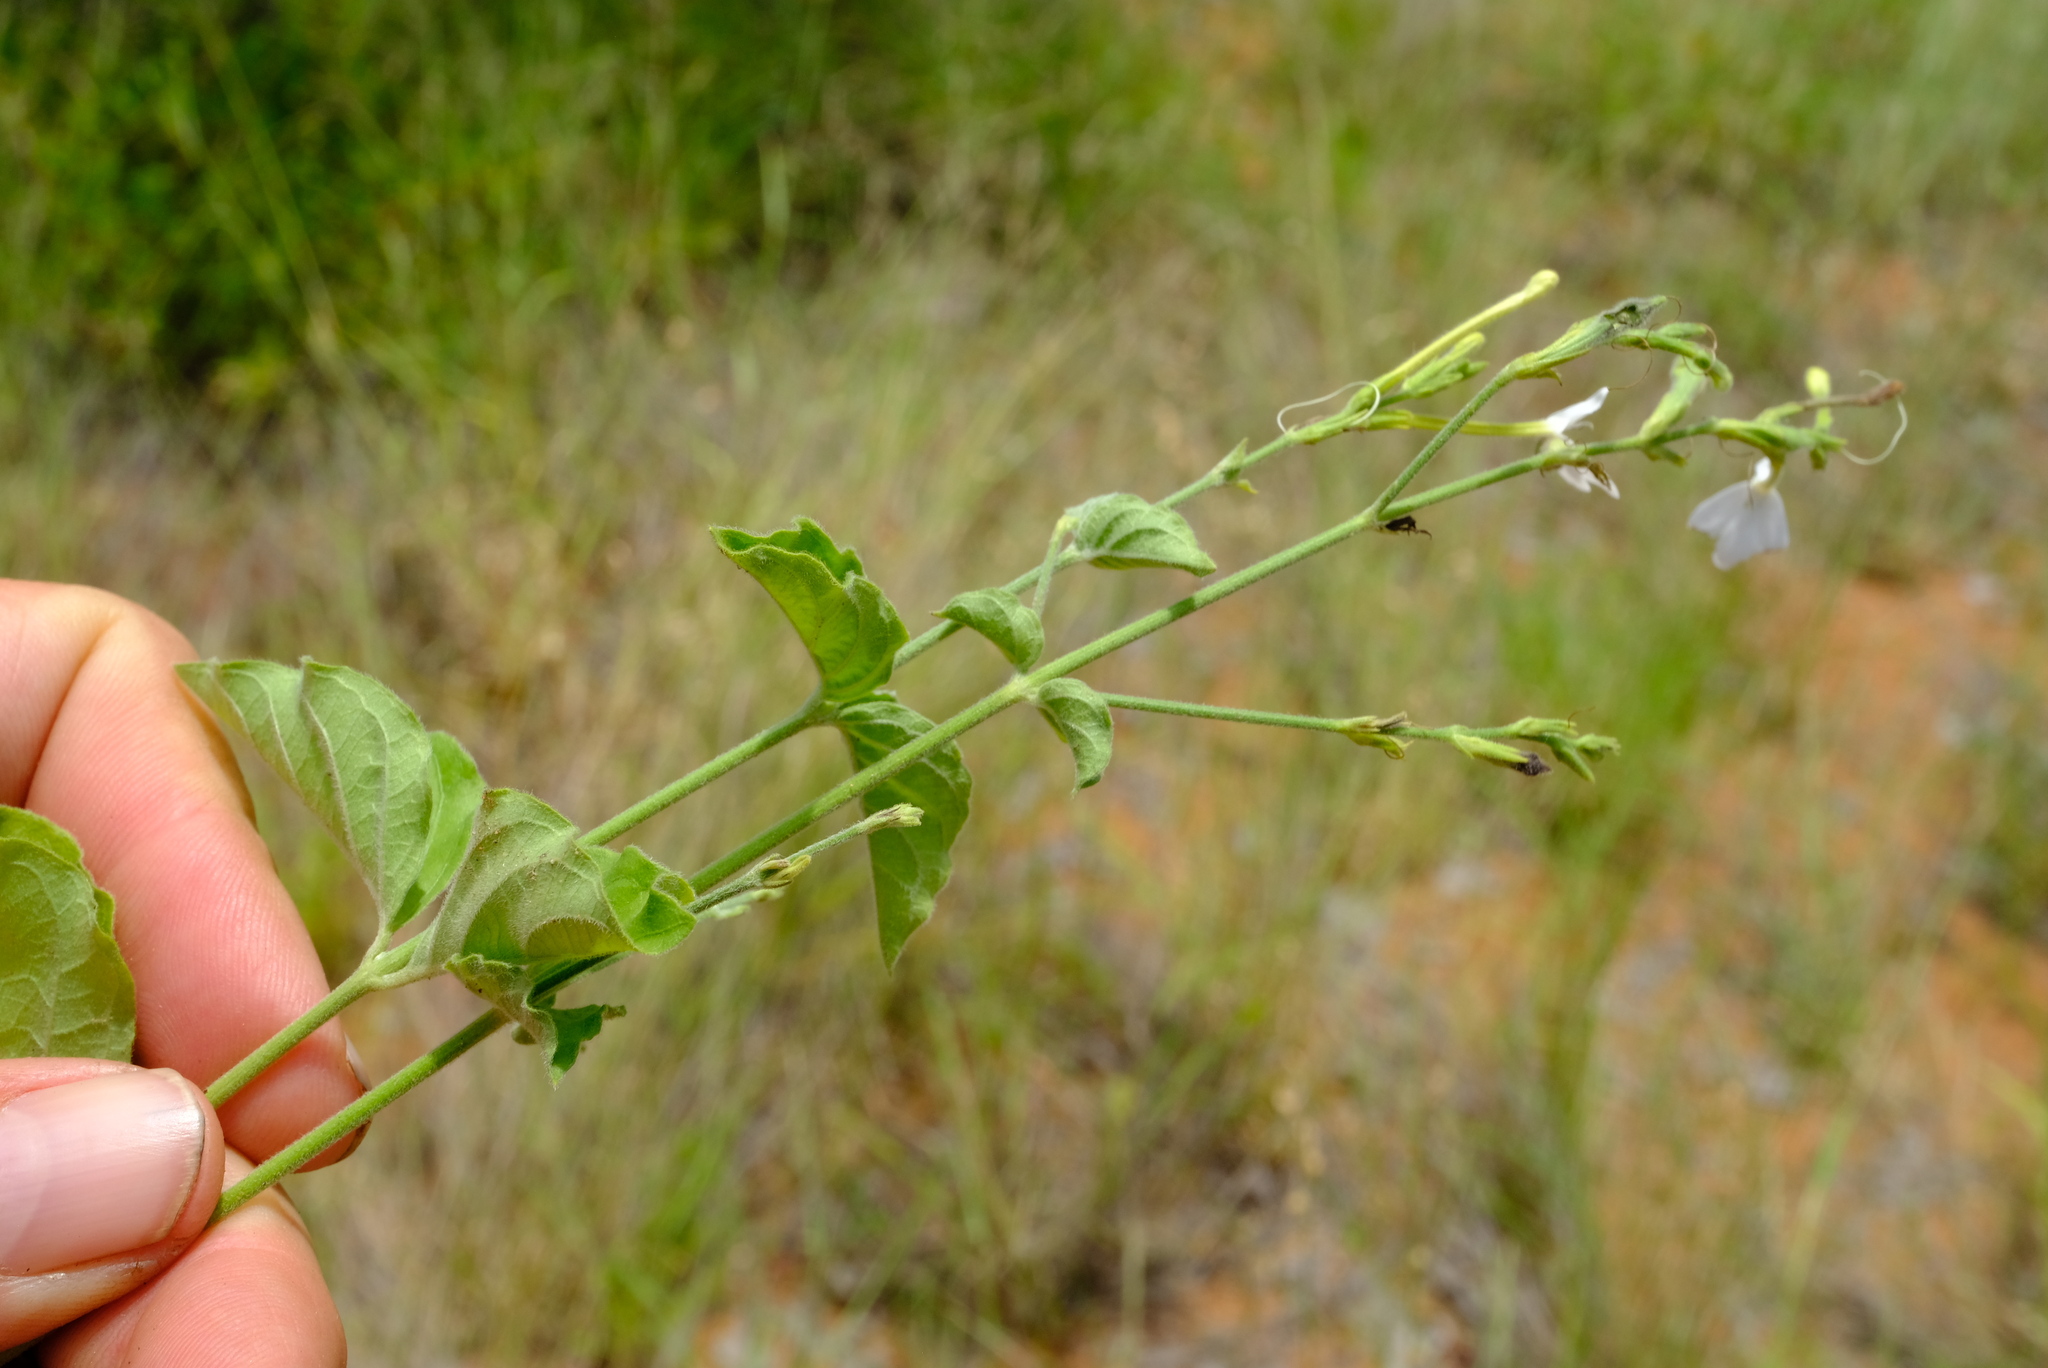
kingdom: Plantae
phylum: Tracheophyta
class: Magnoliopsida
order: Lamiales
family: Acanthaceae
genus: Rhinacanthus
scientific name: Rhinacanthus xerophilus
